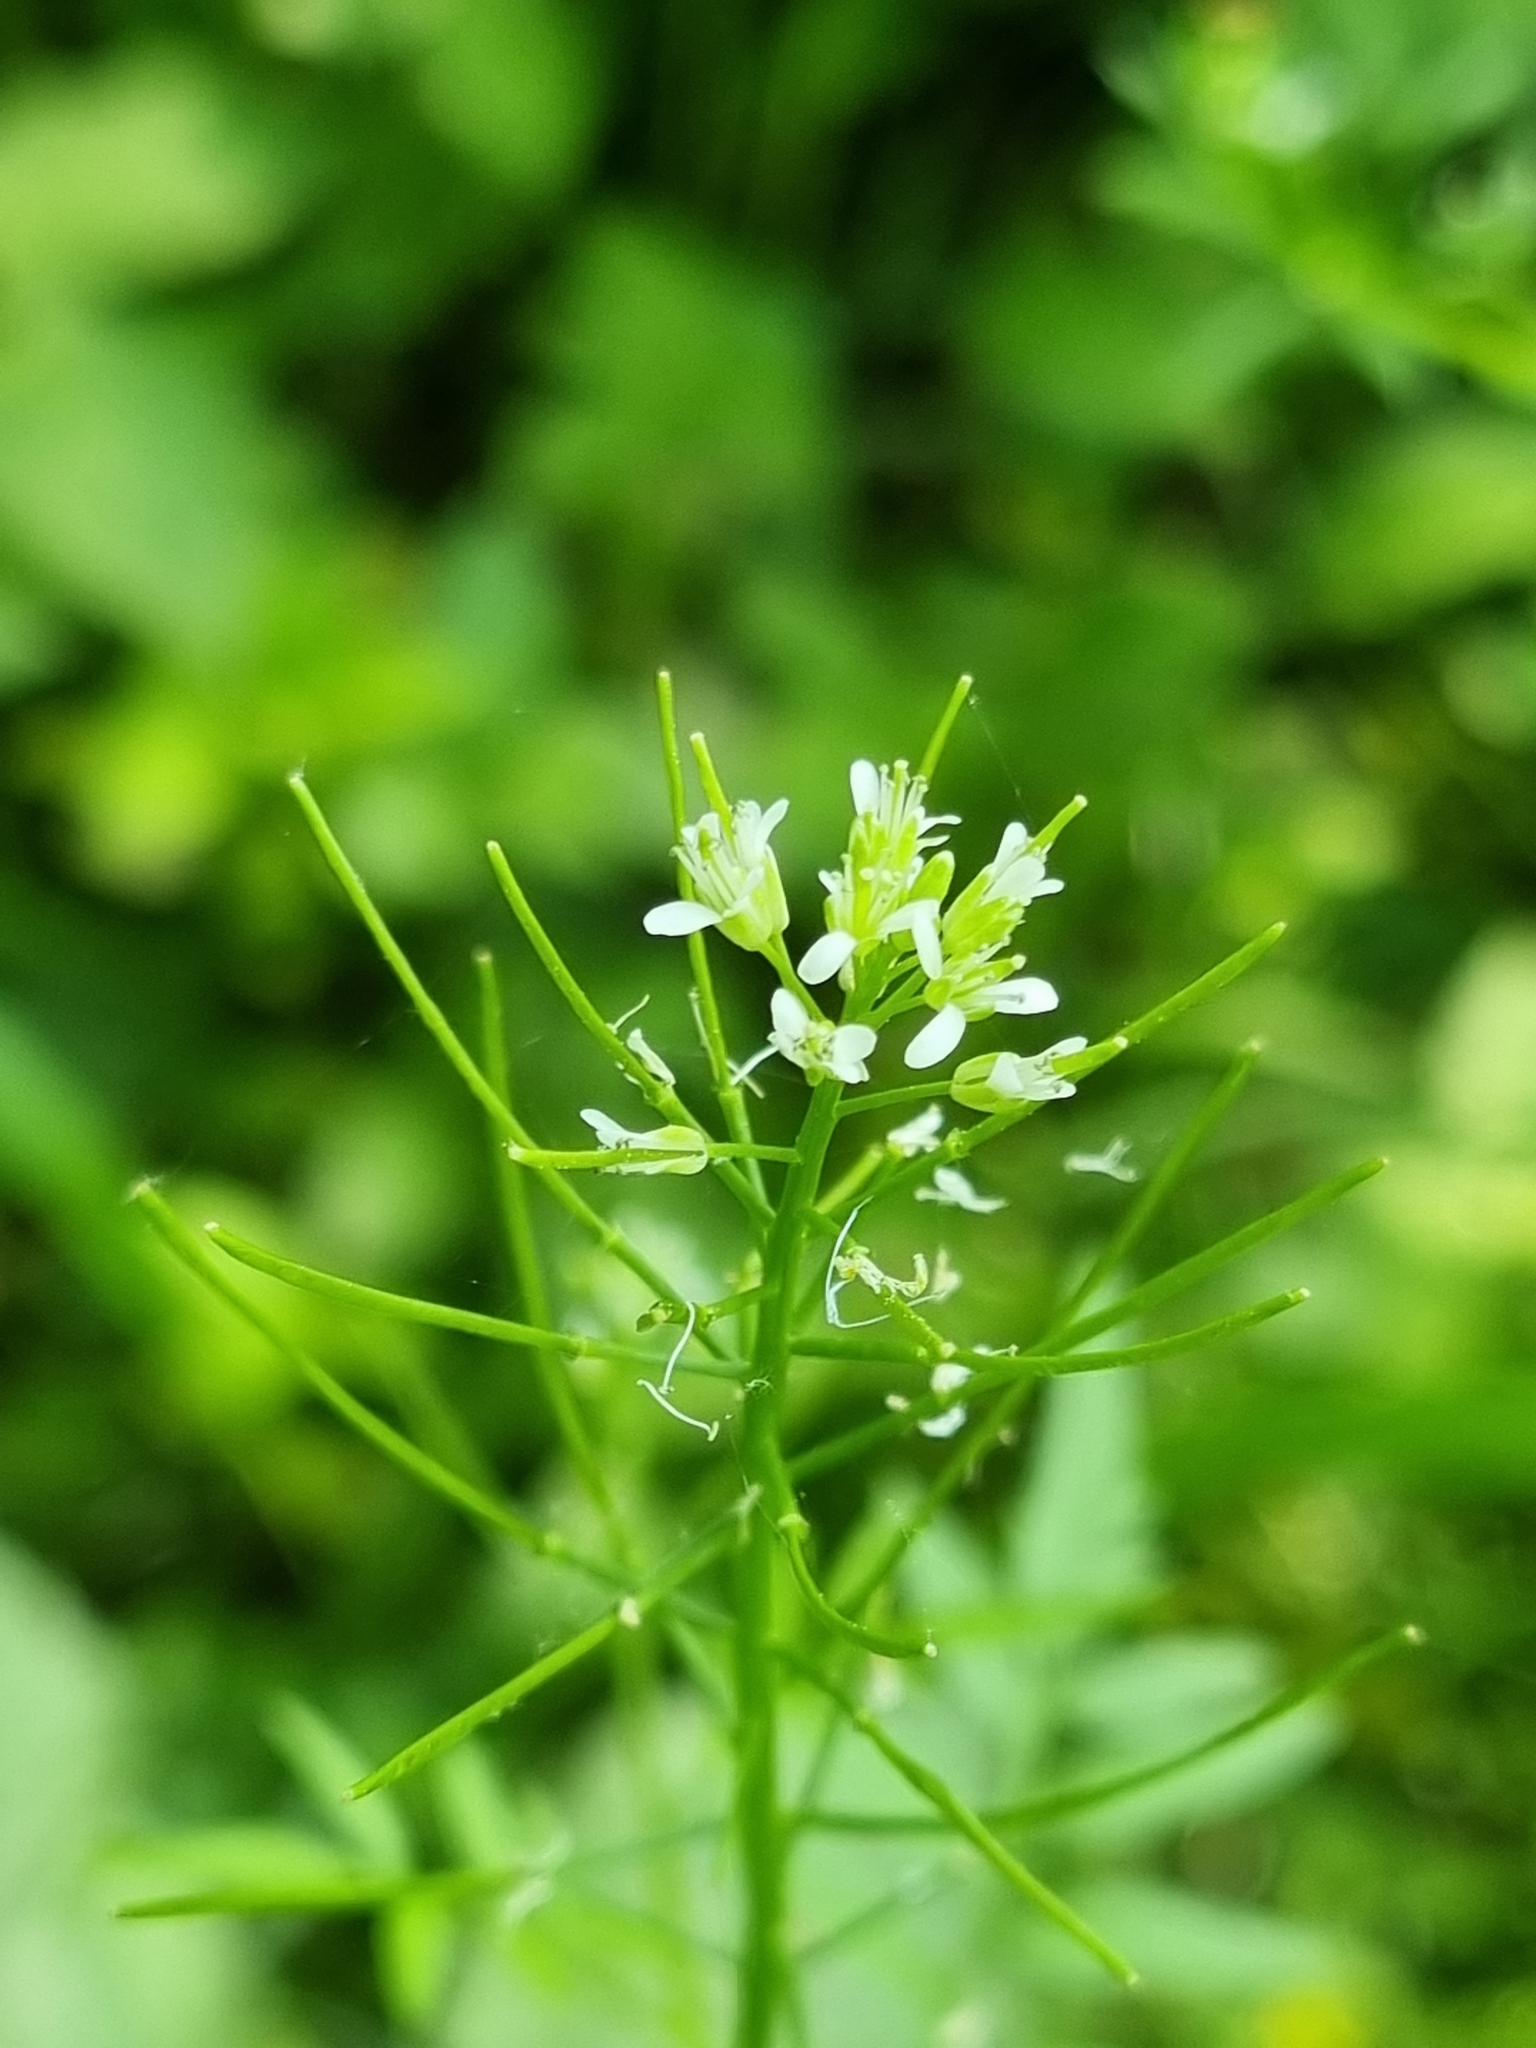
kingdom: Plantae
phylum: Tracheophyta
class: Magnoliopsida
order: Brassicales
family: Brassicaceae
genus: Cardamine
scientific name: Cardamine impatiens
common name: Narrow-leaved bitter-cress
